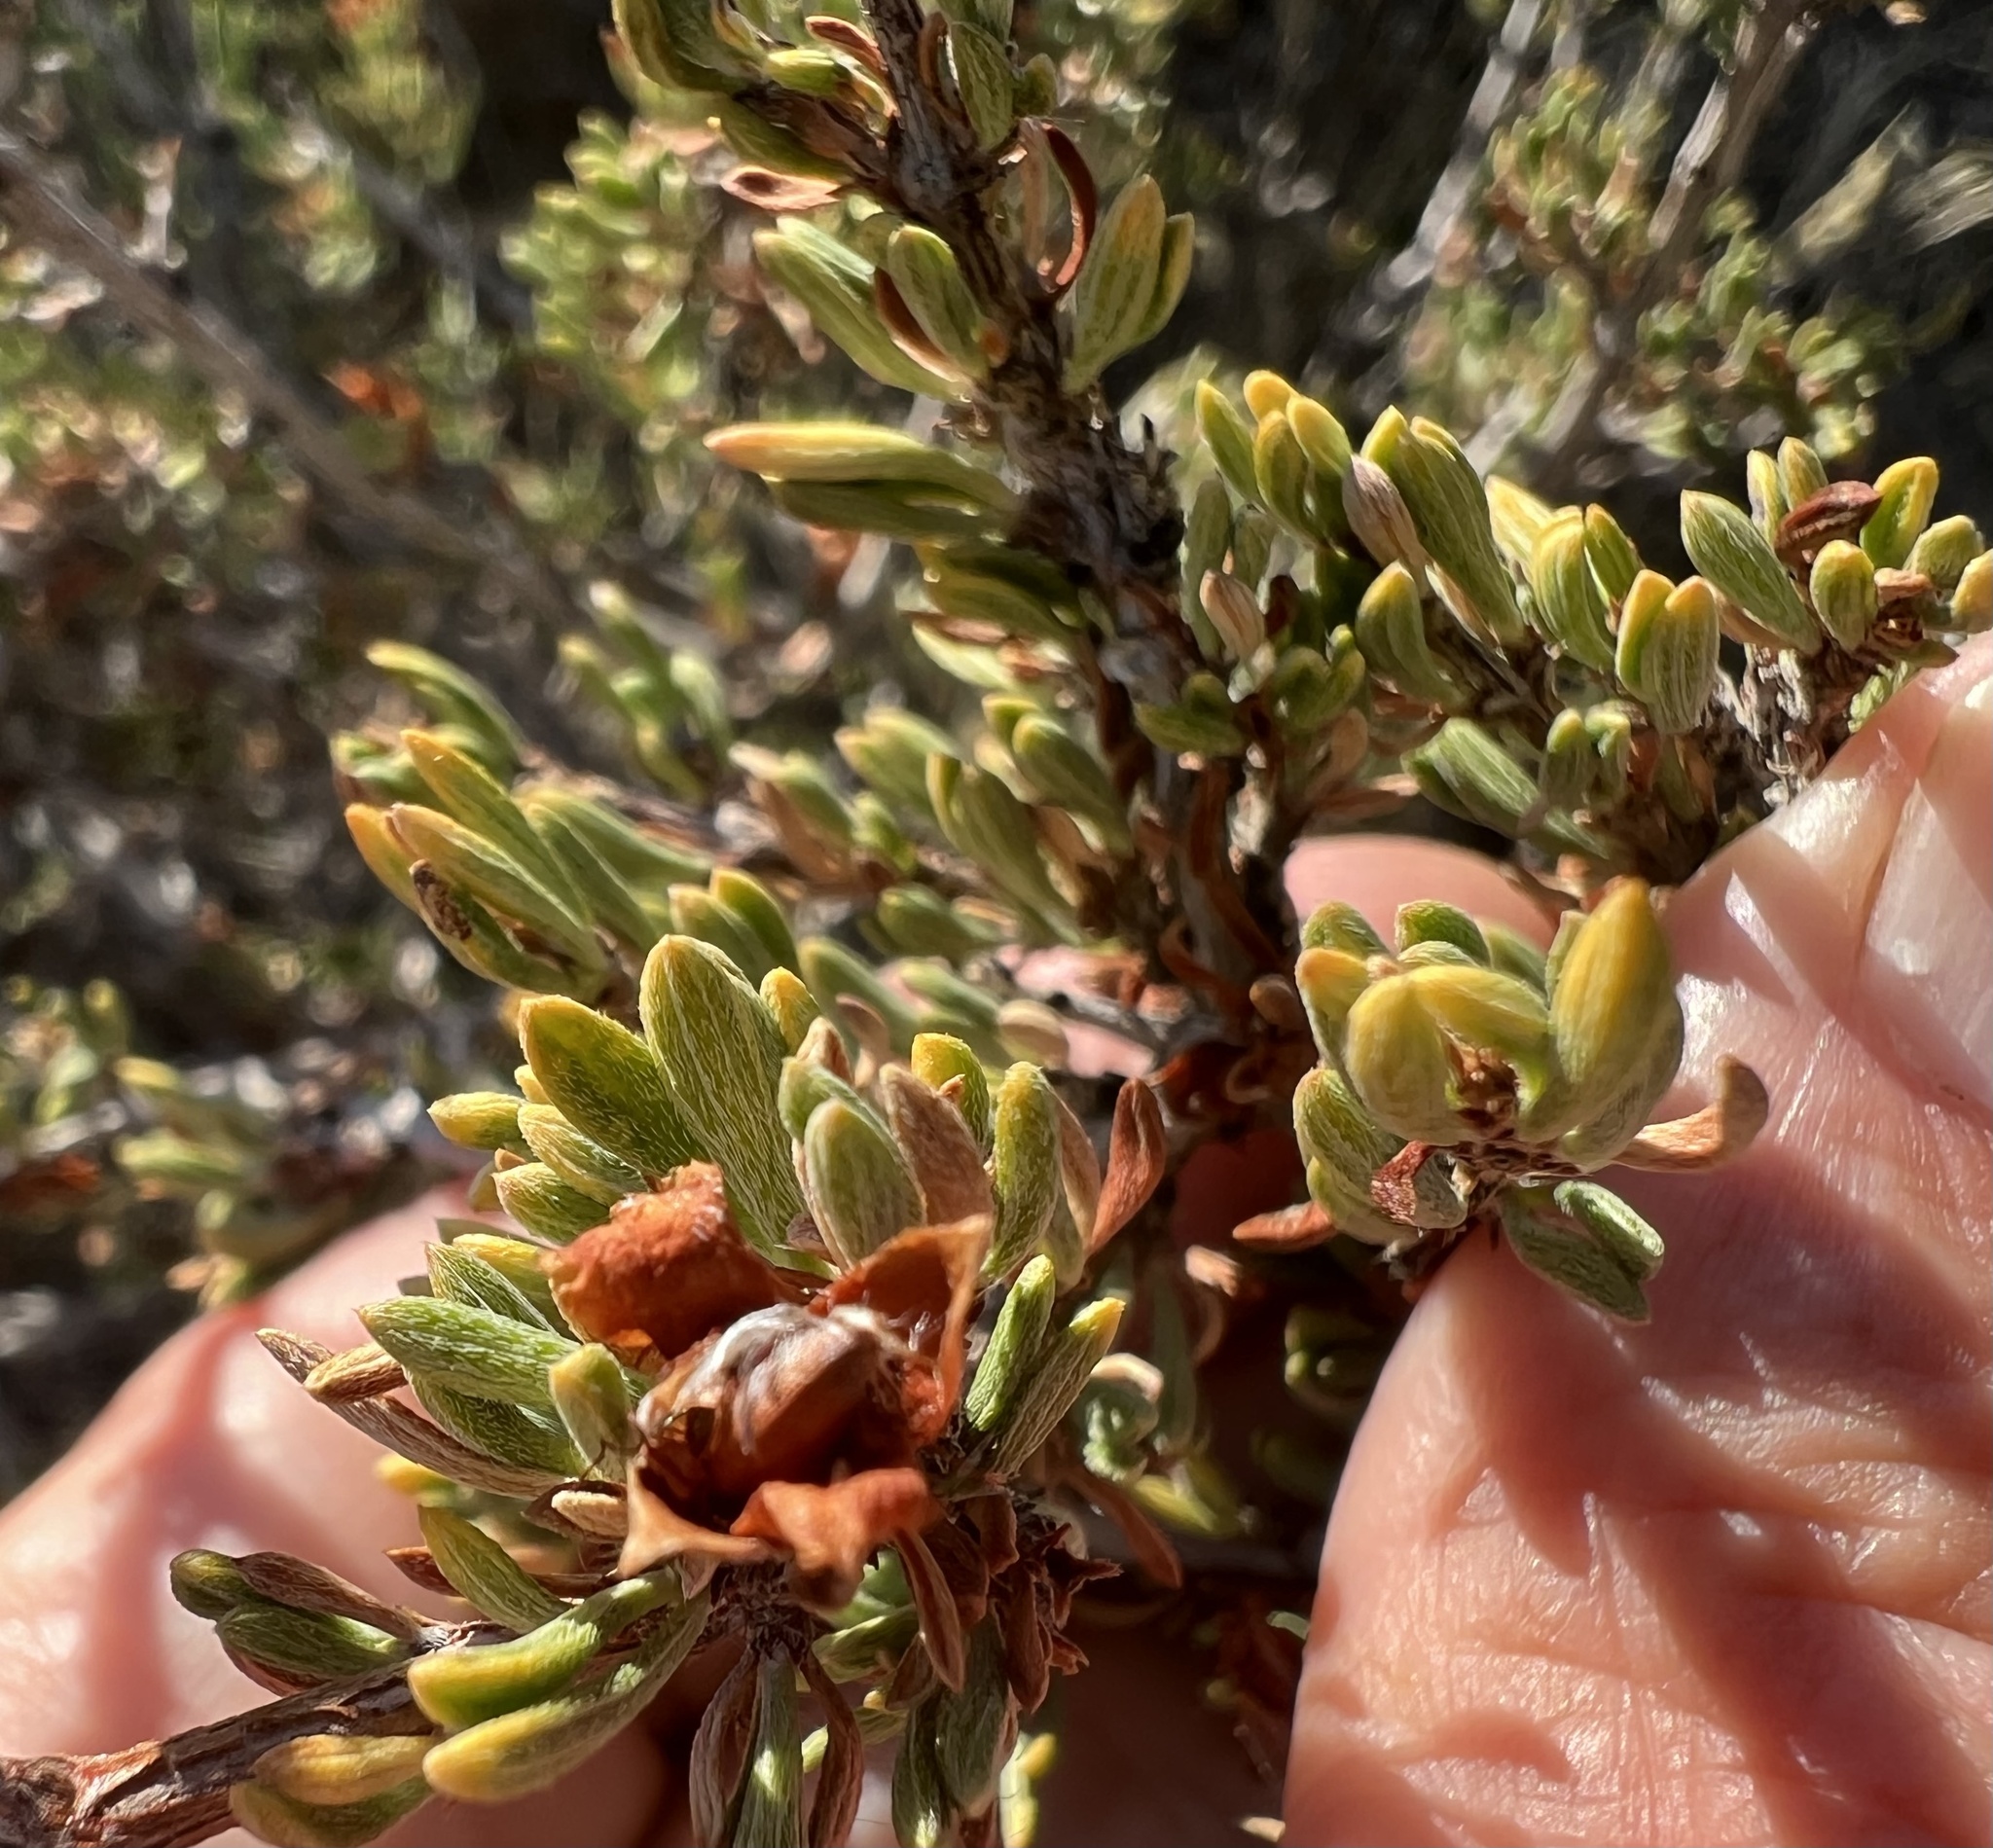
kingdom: Plantae
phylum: Tracheophyta
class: Magnoliopsida
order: Rosales
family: Rosaceae
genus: Coleogyne
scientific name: Coleogyne ramosissima
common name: Blackbrush
